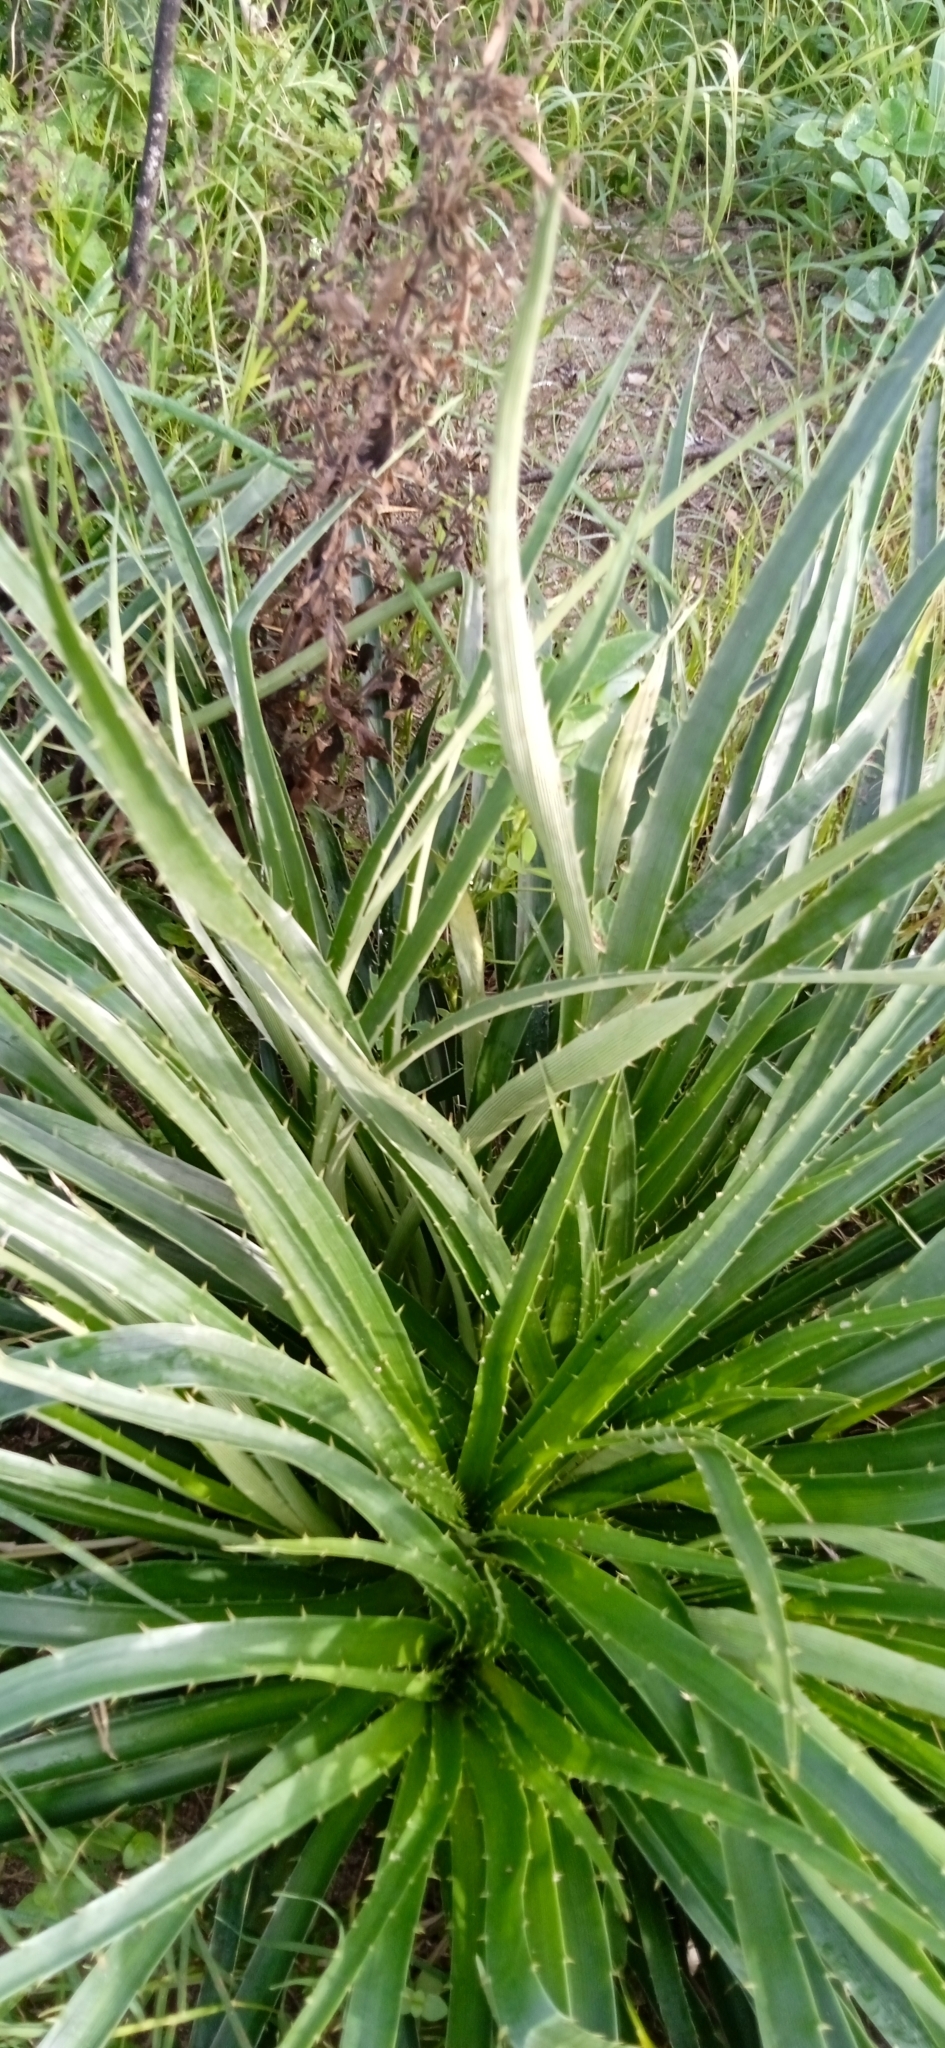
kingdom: Plantae
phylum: Tracheophyta
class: Magnoliopsida
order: Apiales
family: Apiaceae
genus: Eryngium
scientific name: Eryngium horridum
